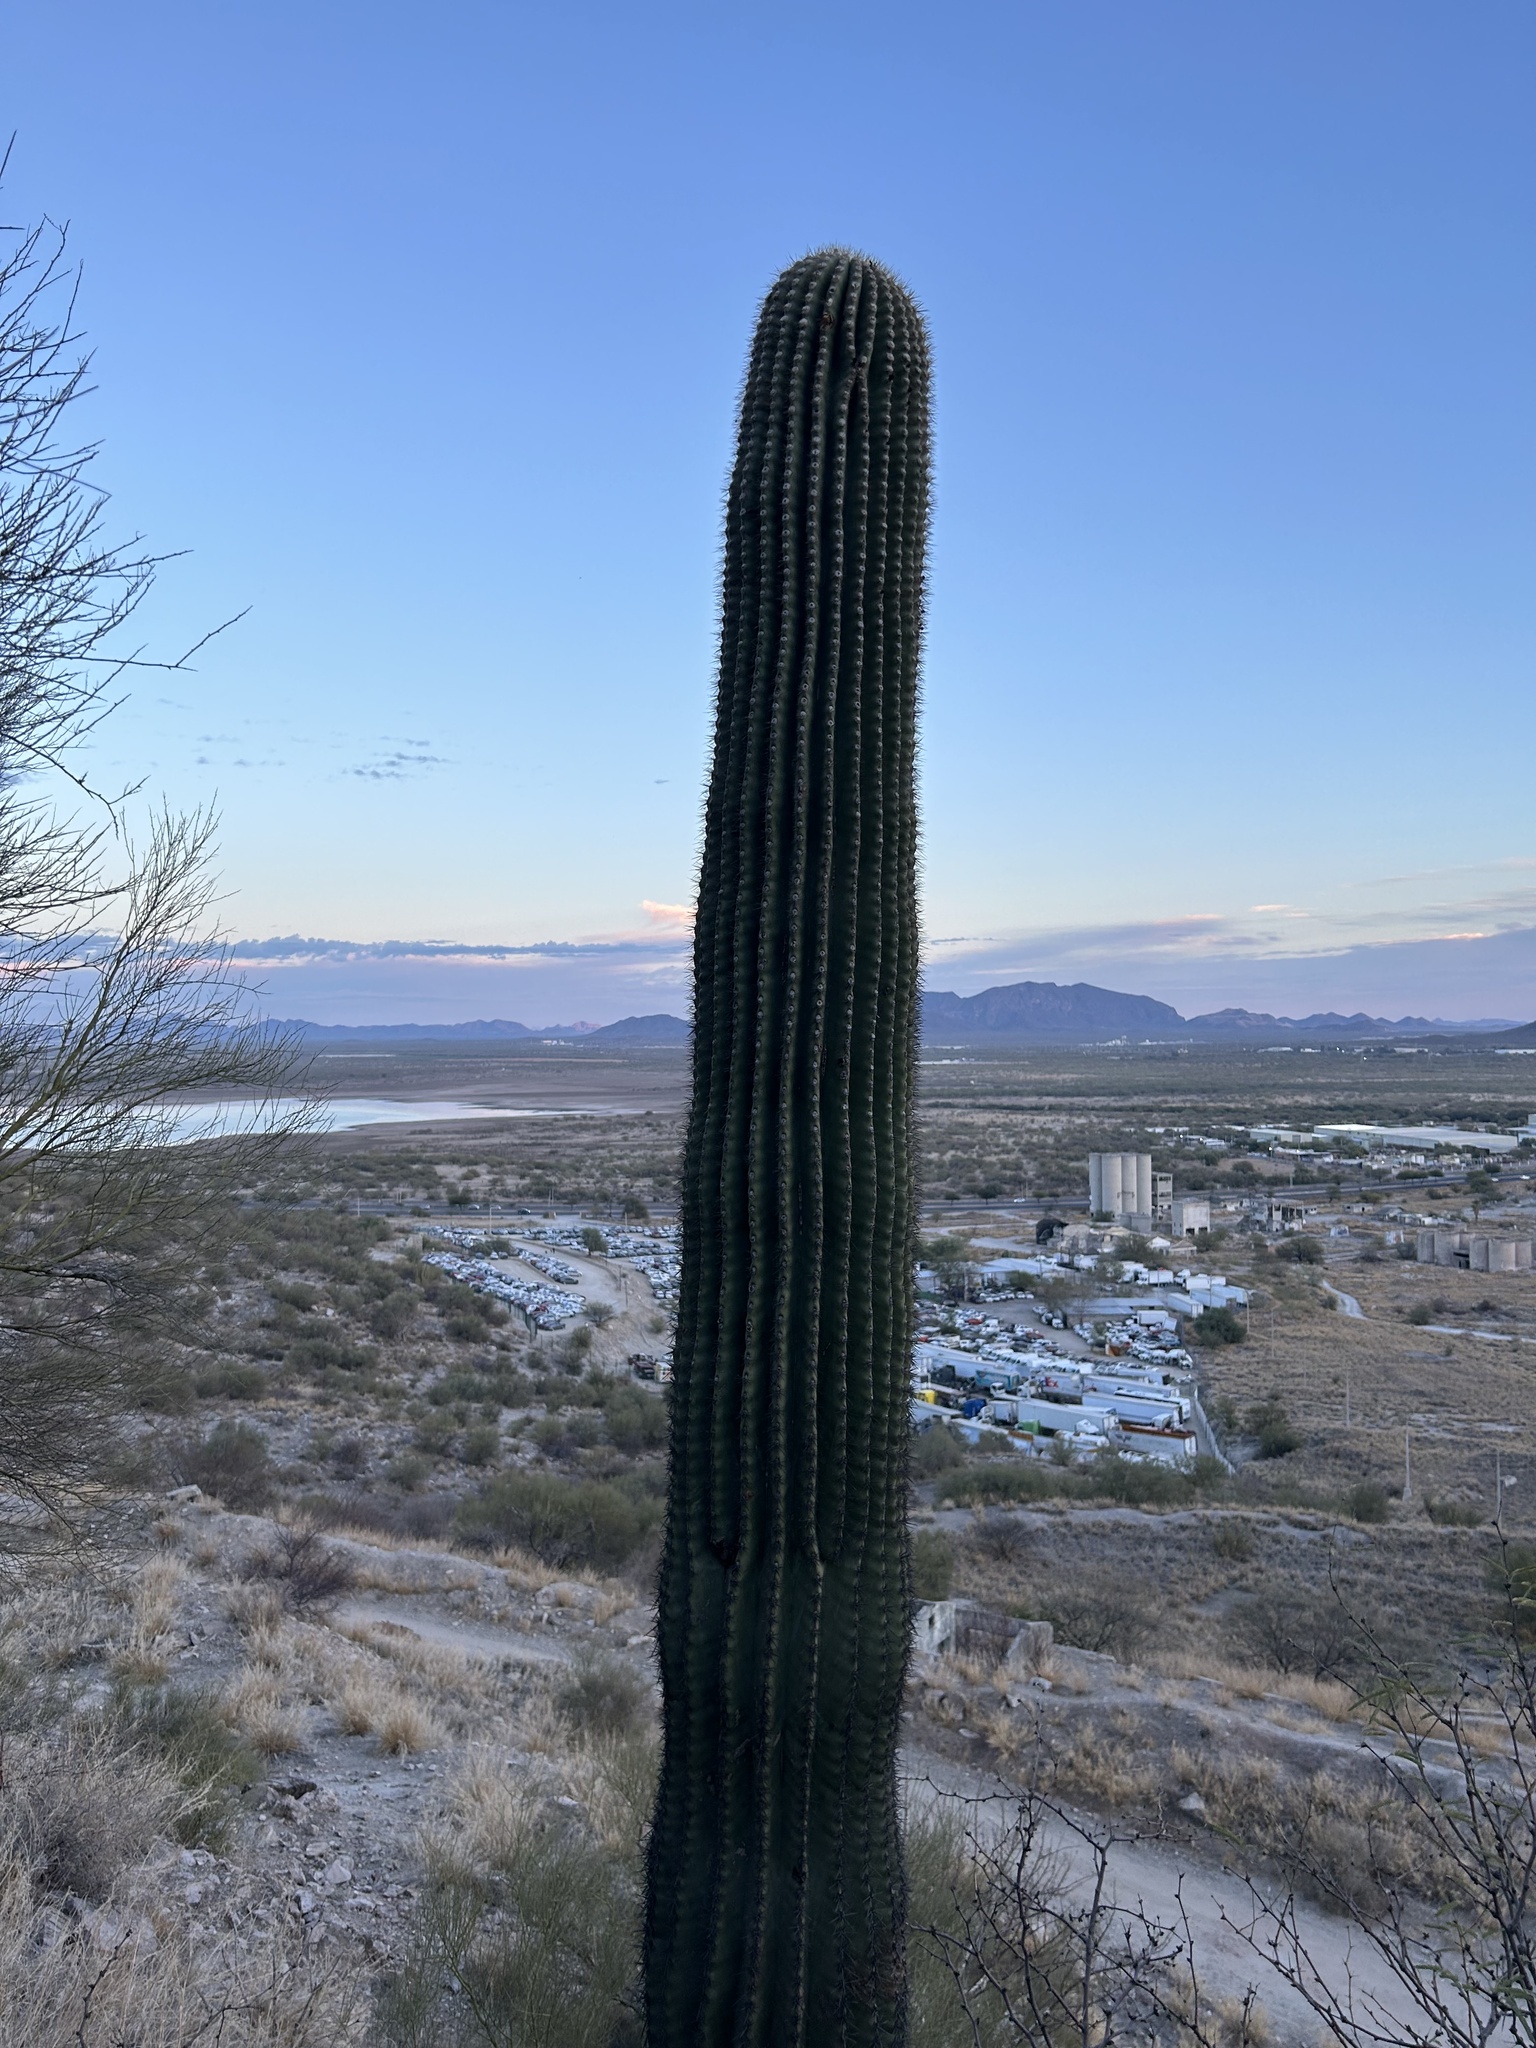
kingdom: Plantae
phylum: Tracheophyta
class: Magnoliopsida
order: Caryophyllales
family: Cactaceae
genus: Carnegiea
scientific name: Carnegiea gigantea
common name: Saguaro
